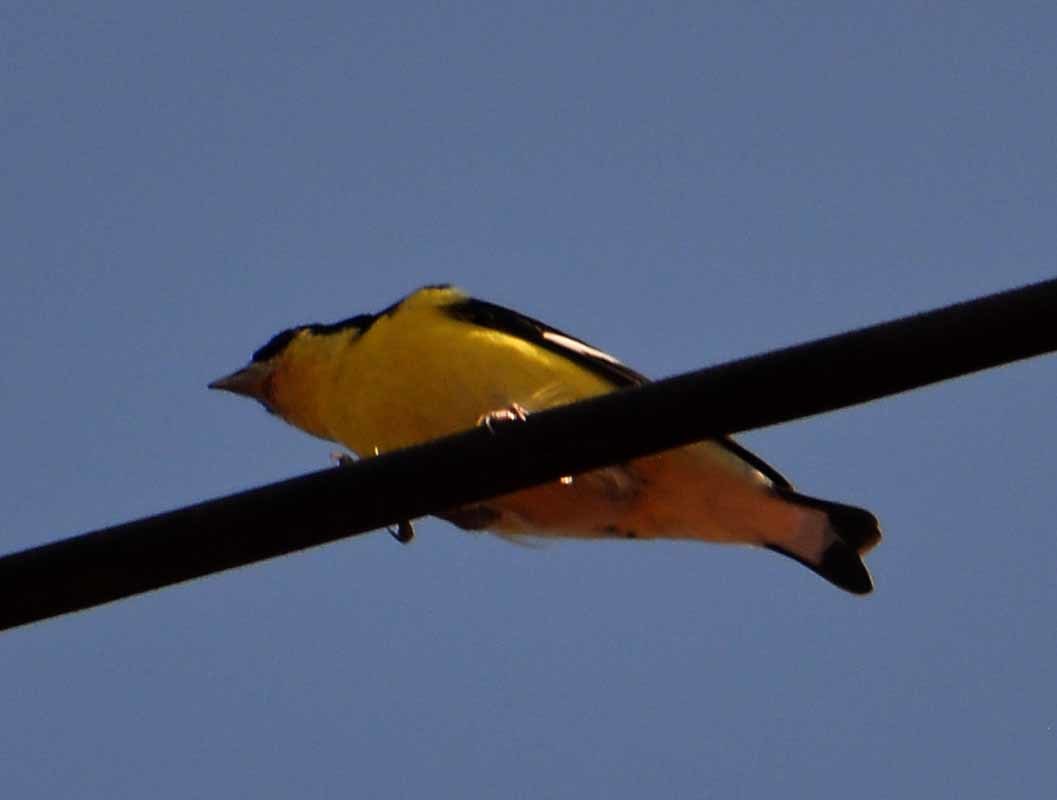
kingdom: Animalia
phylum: Chordata
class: Aves
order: Passeriformes
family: Fringillidae
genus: Spinus
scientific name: Spinus psaltria
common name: Lesser goldfinch
